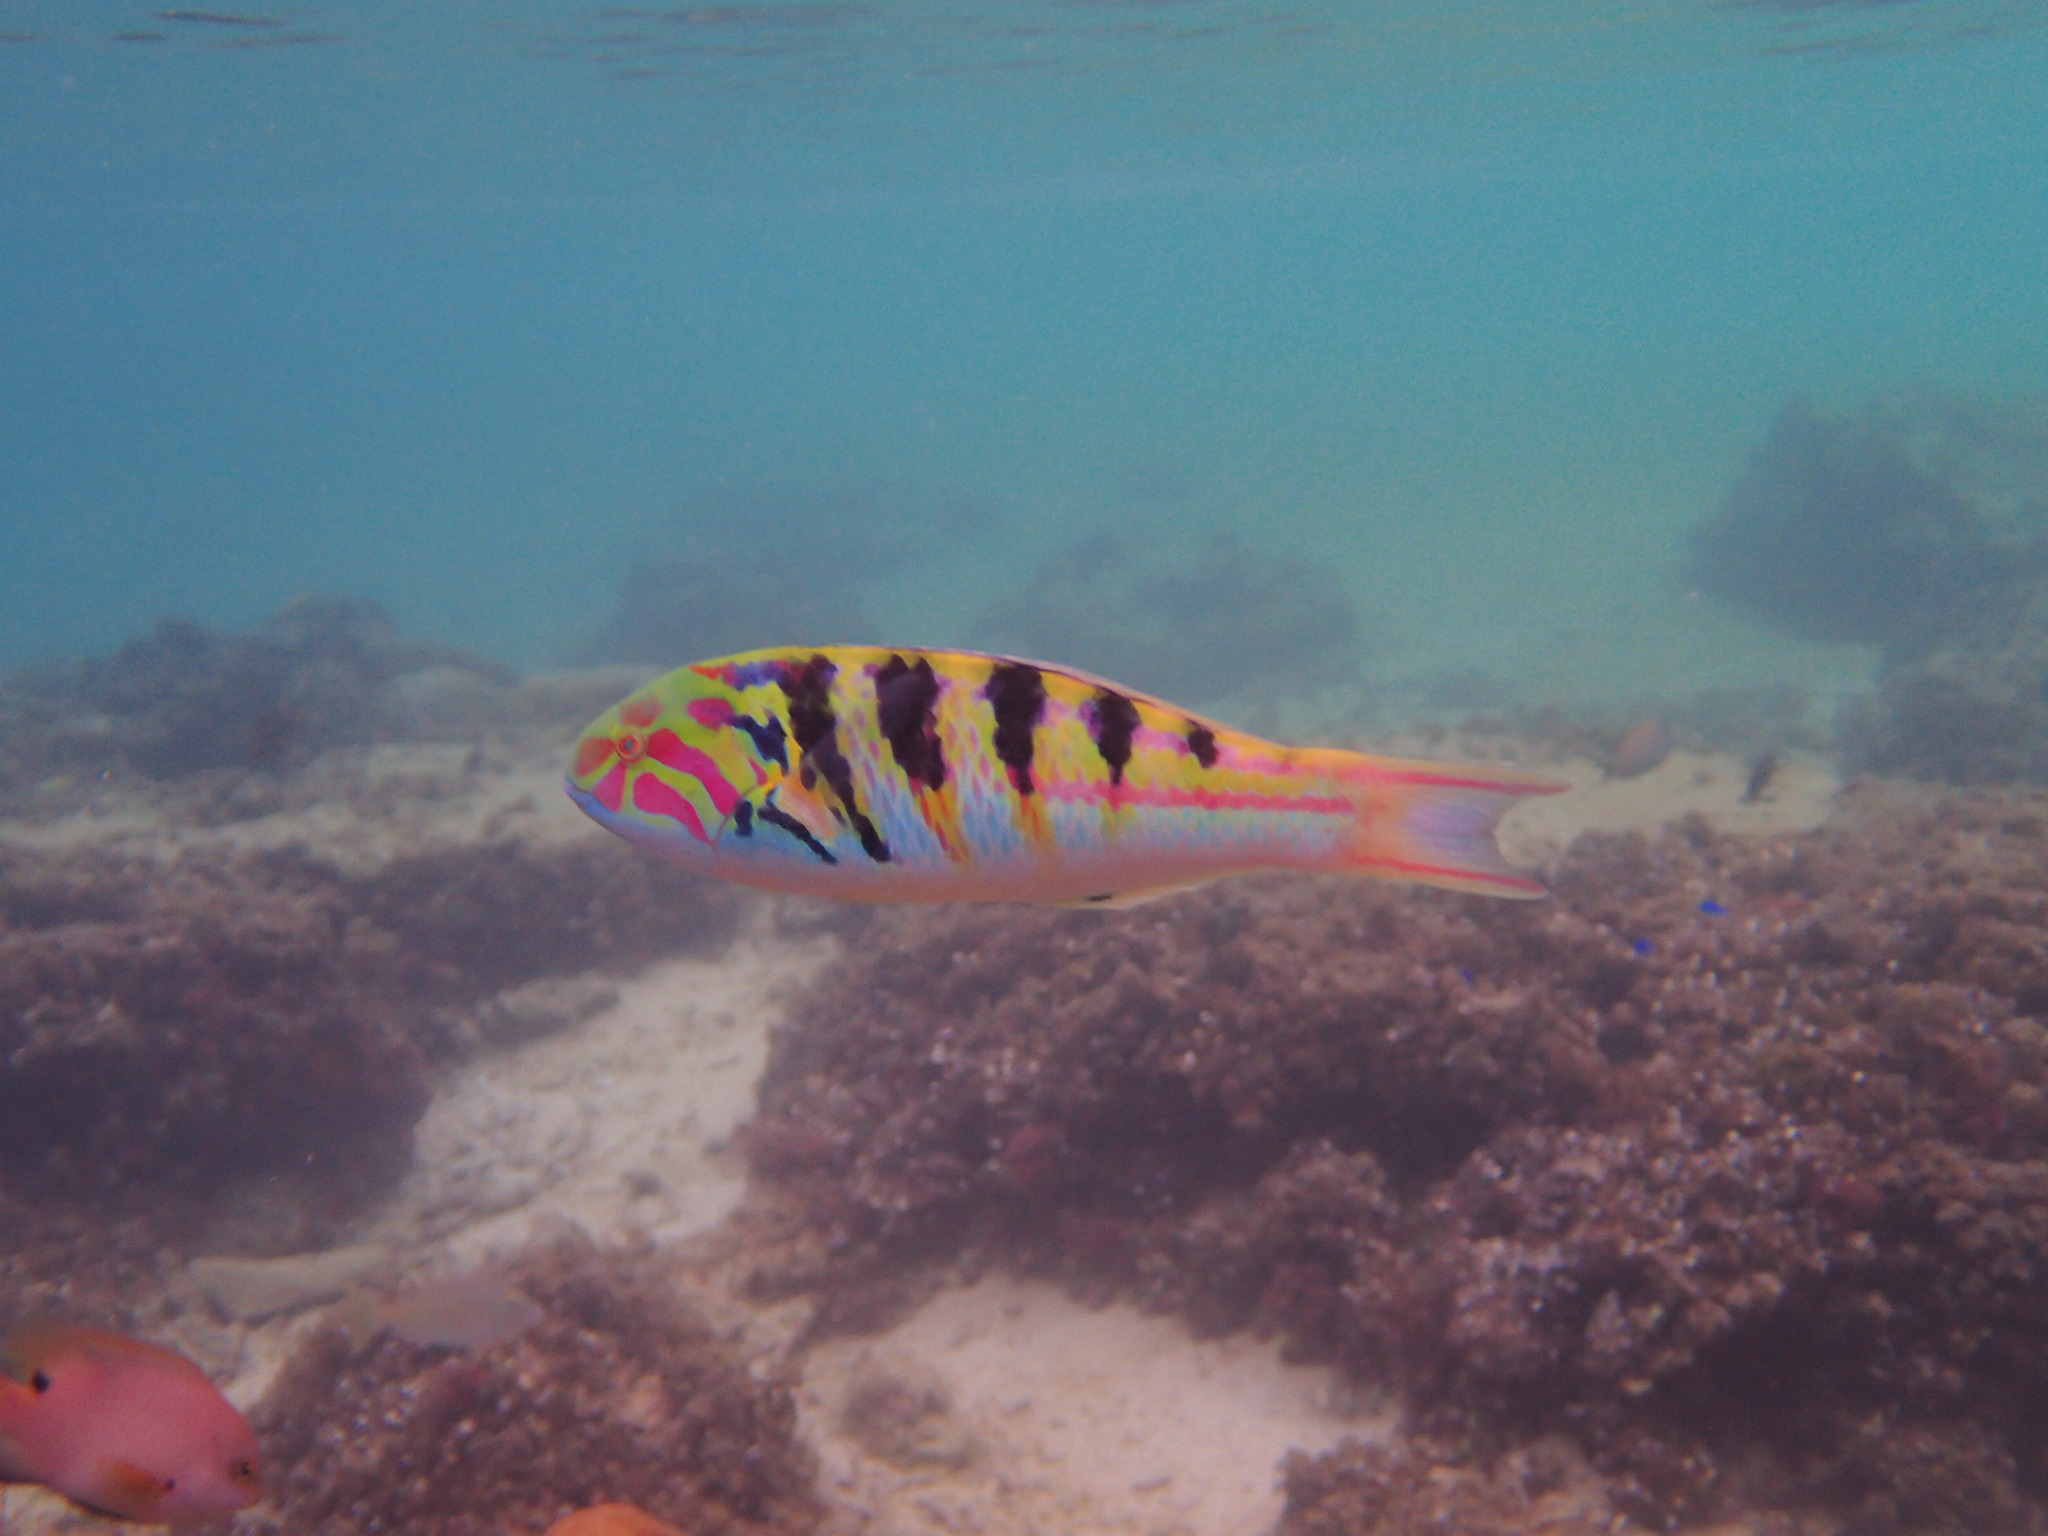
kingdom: Animalia
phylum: Chordata
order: Perciformes
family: Labridae
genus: Thalassoma
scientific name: Thalassoma hardwicke
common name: Sixbar wrasse
